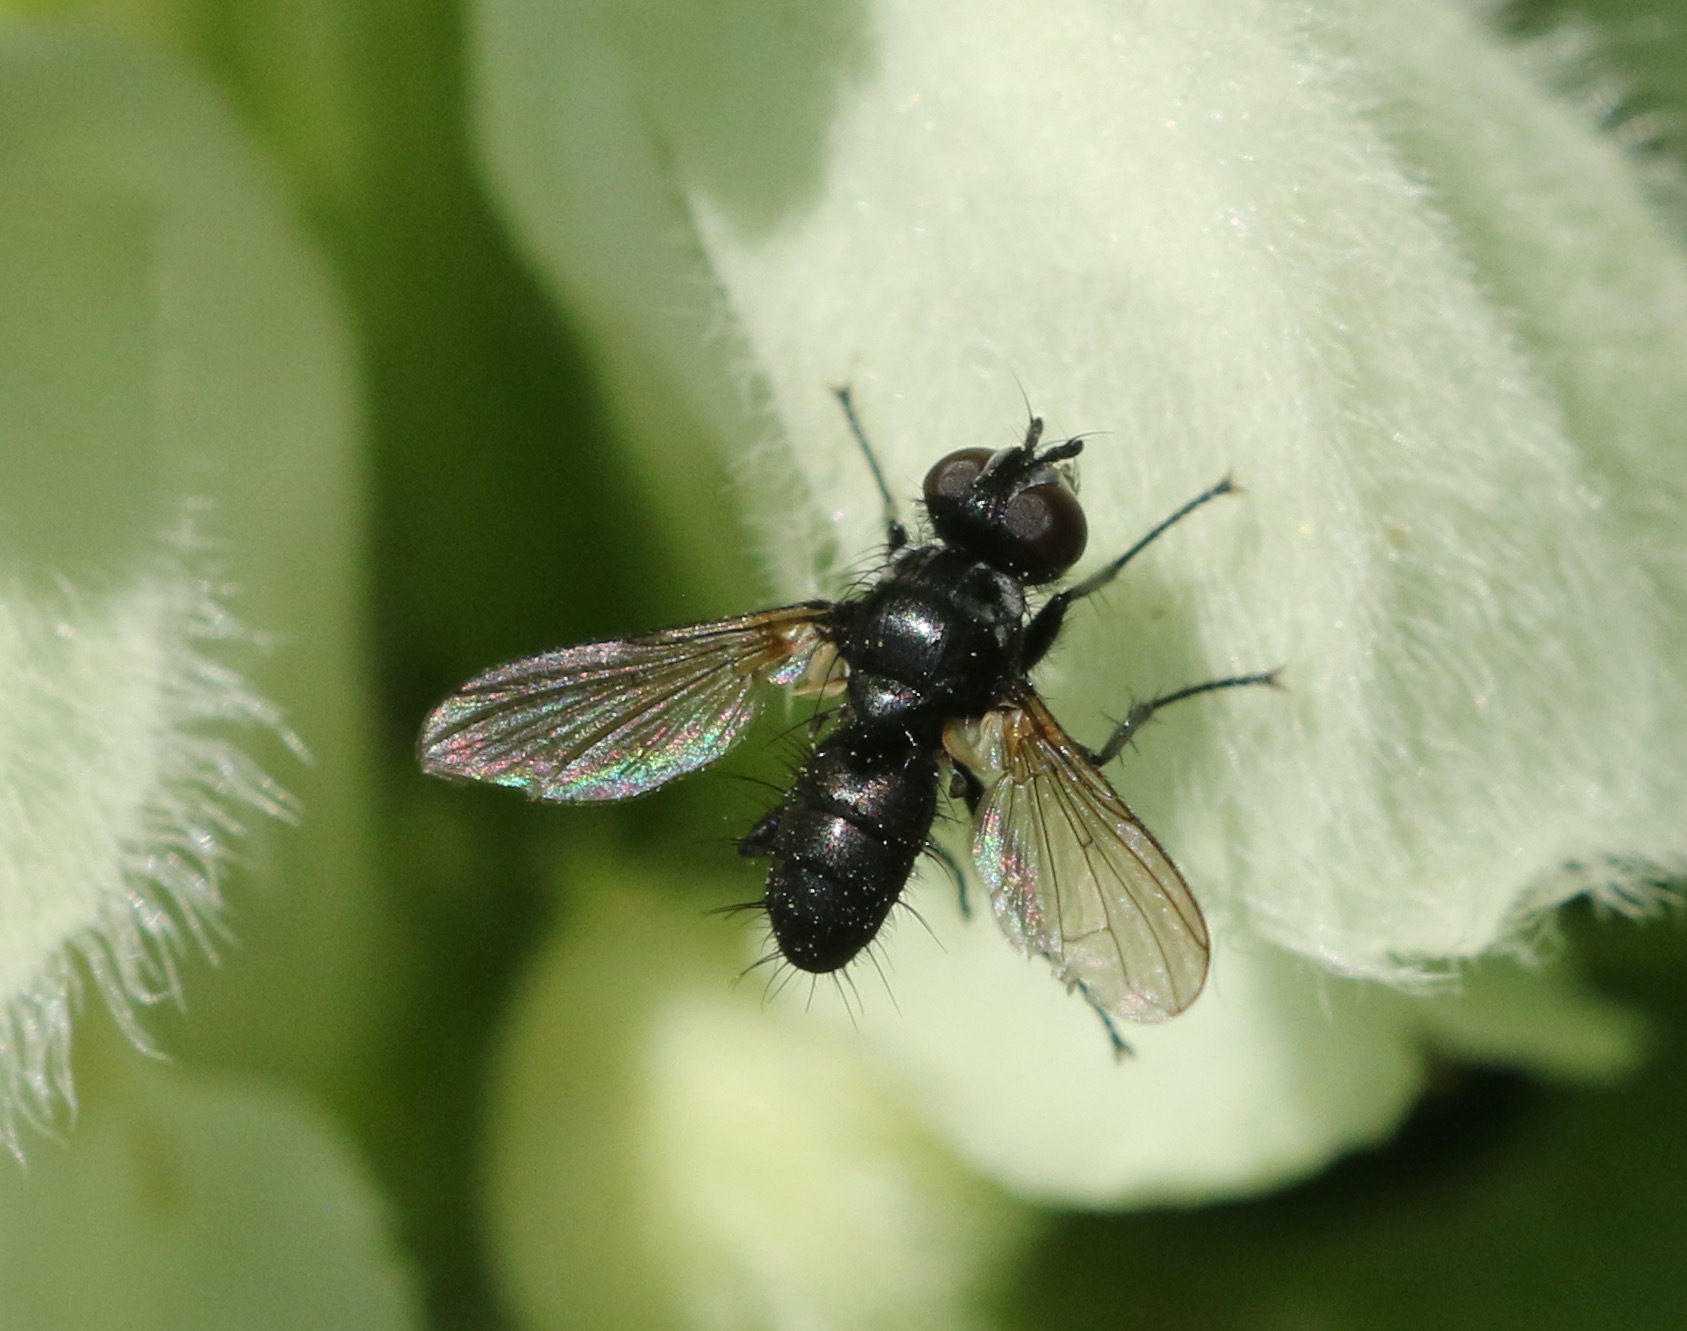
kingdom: Animalia
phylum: Arthropoda
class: Insecta
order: Diptera
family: Tachinidae
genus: Phania
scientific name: Phania funesta
